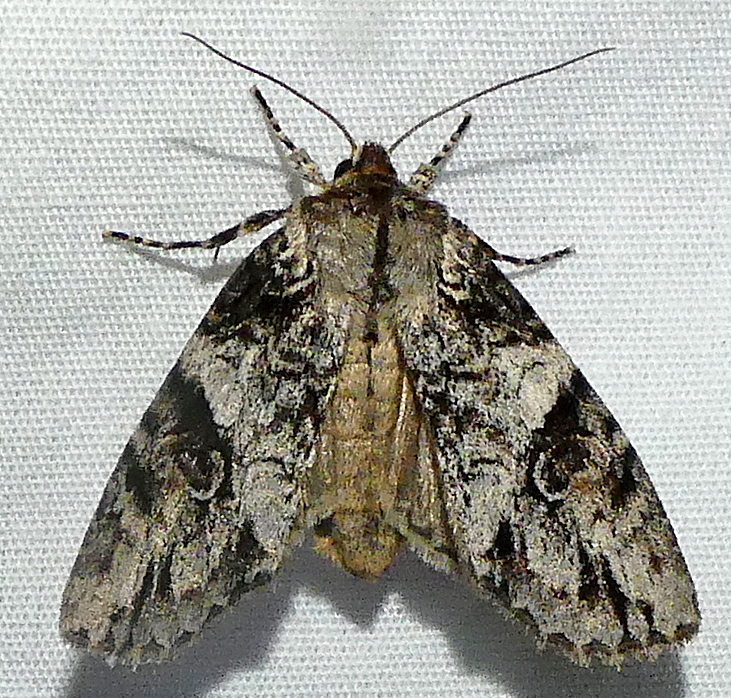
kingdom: Animalia
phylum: Arthropoda
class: Insecta
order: Lepidoptera
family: Noctuidae
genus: Achatia
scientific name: Achatia latex
